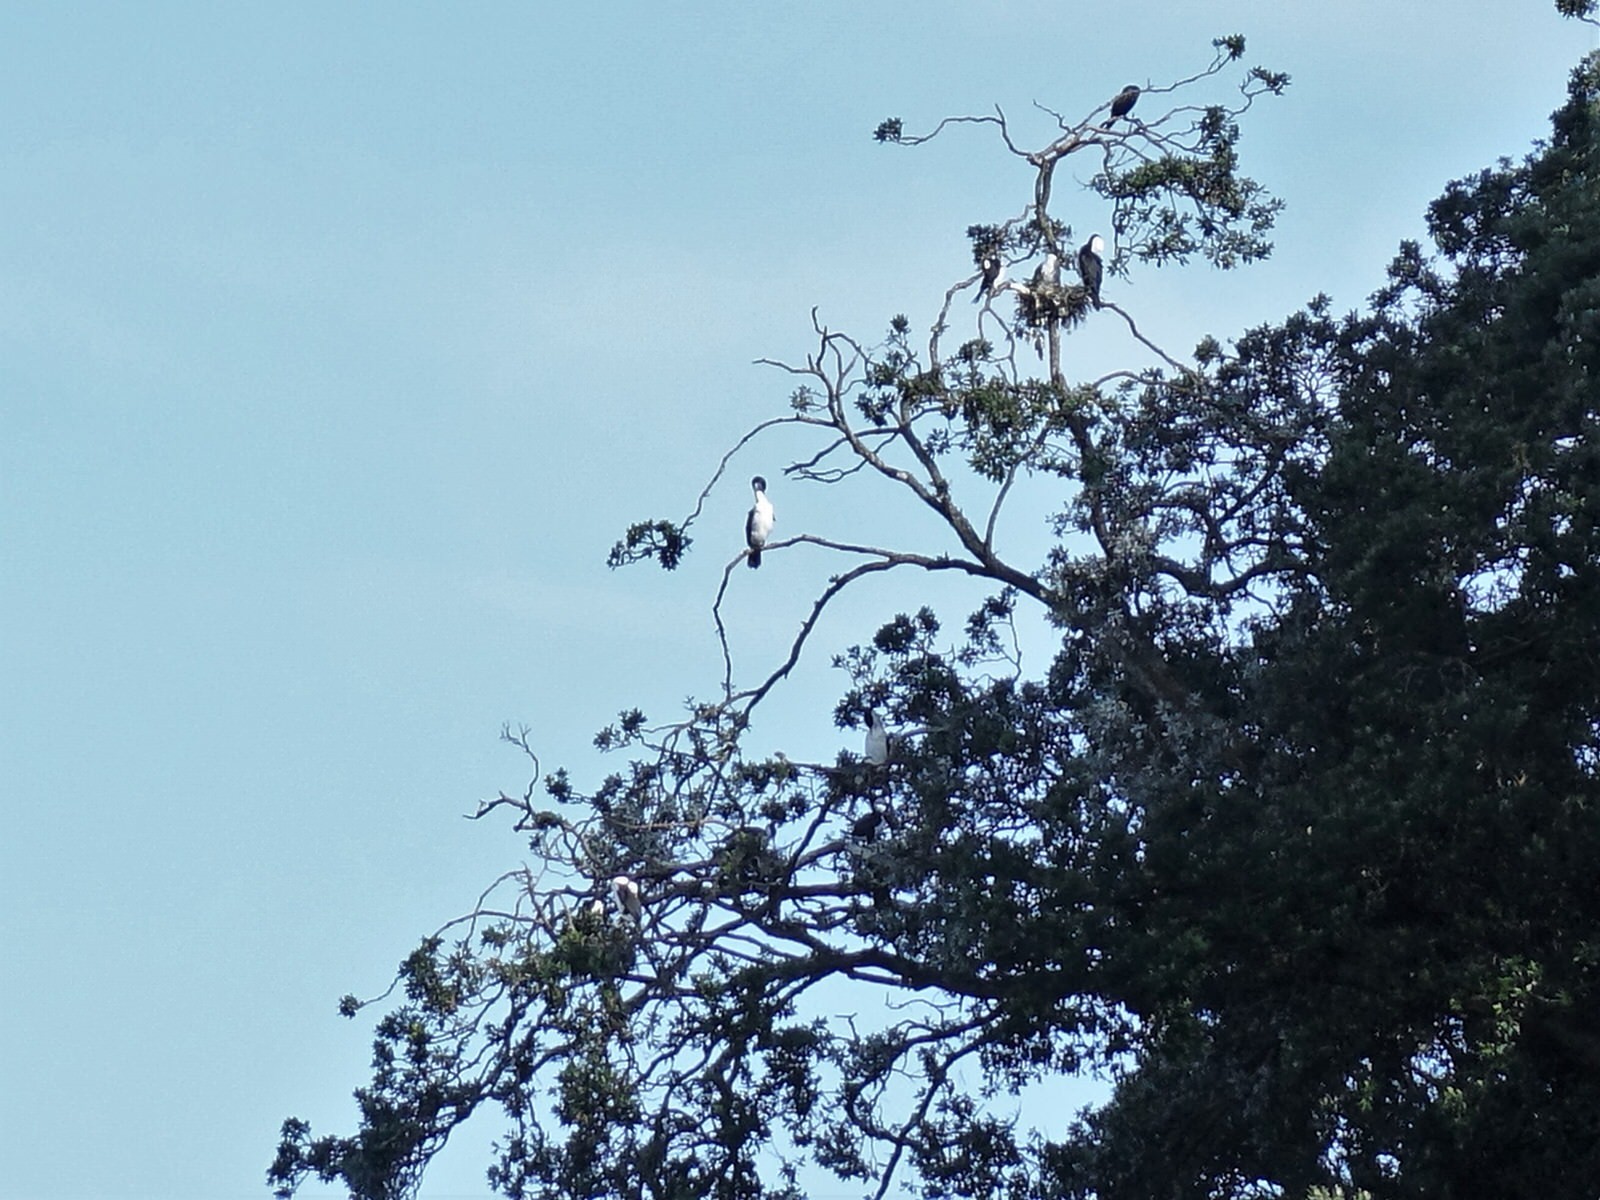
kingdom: Animalia
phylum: Chordata
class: Aves
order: Suliformes
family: Phalacrocoracidae
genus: Phalacrocorax
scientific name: Phalacrocorax varius
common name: Pied cormorant
